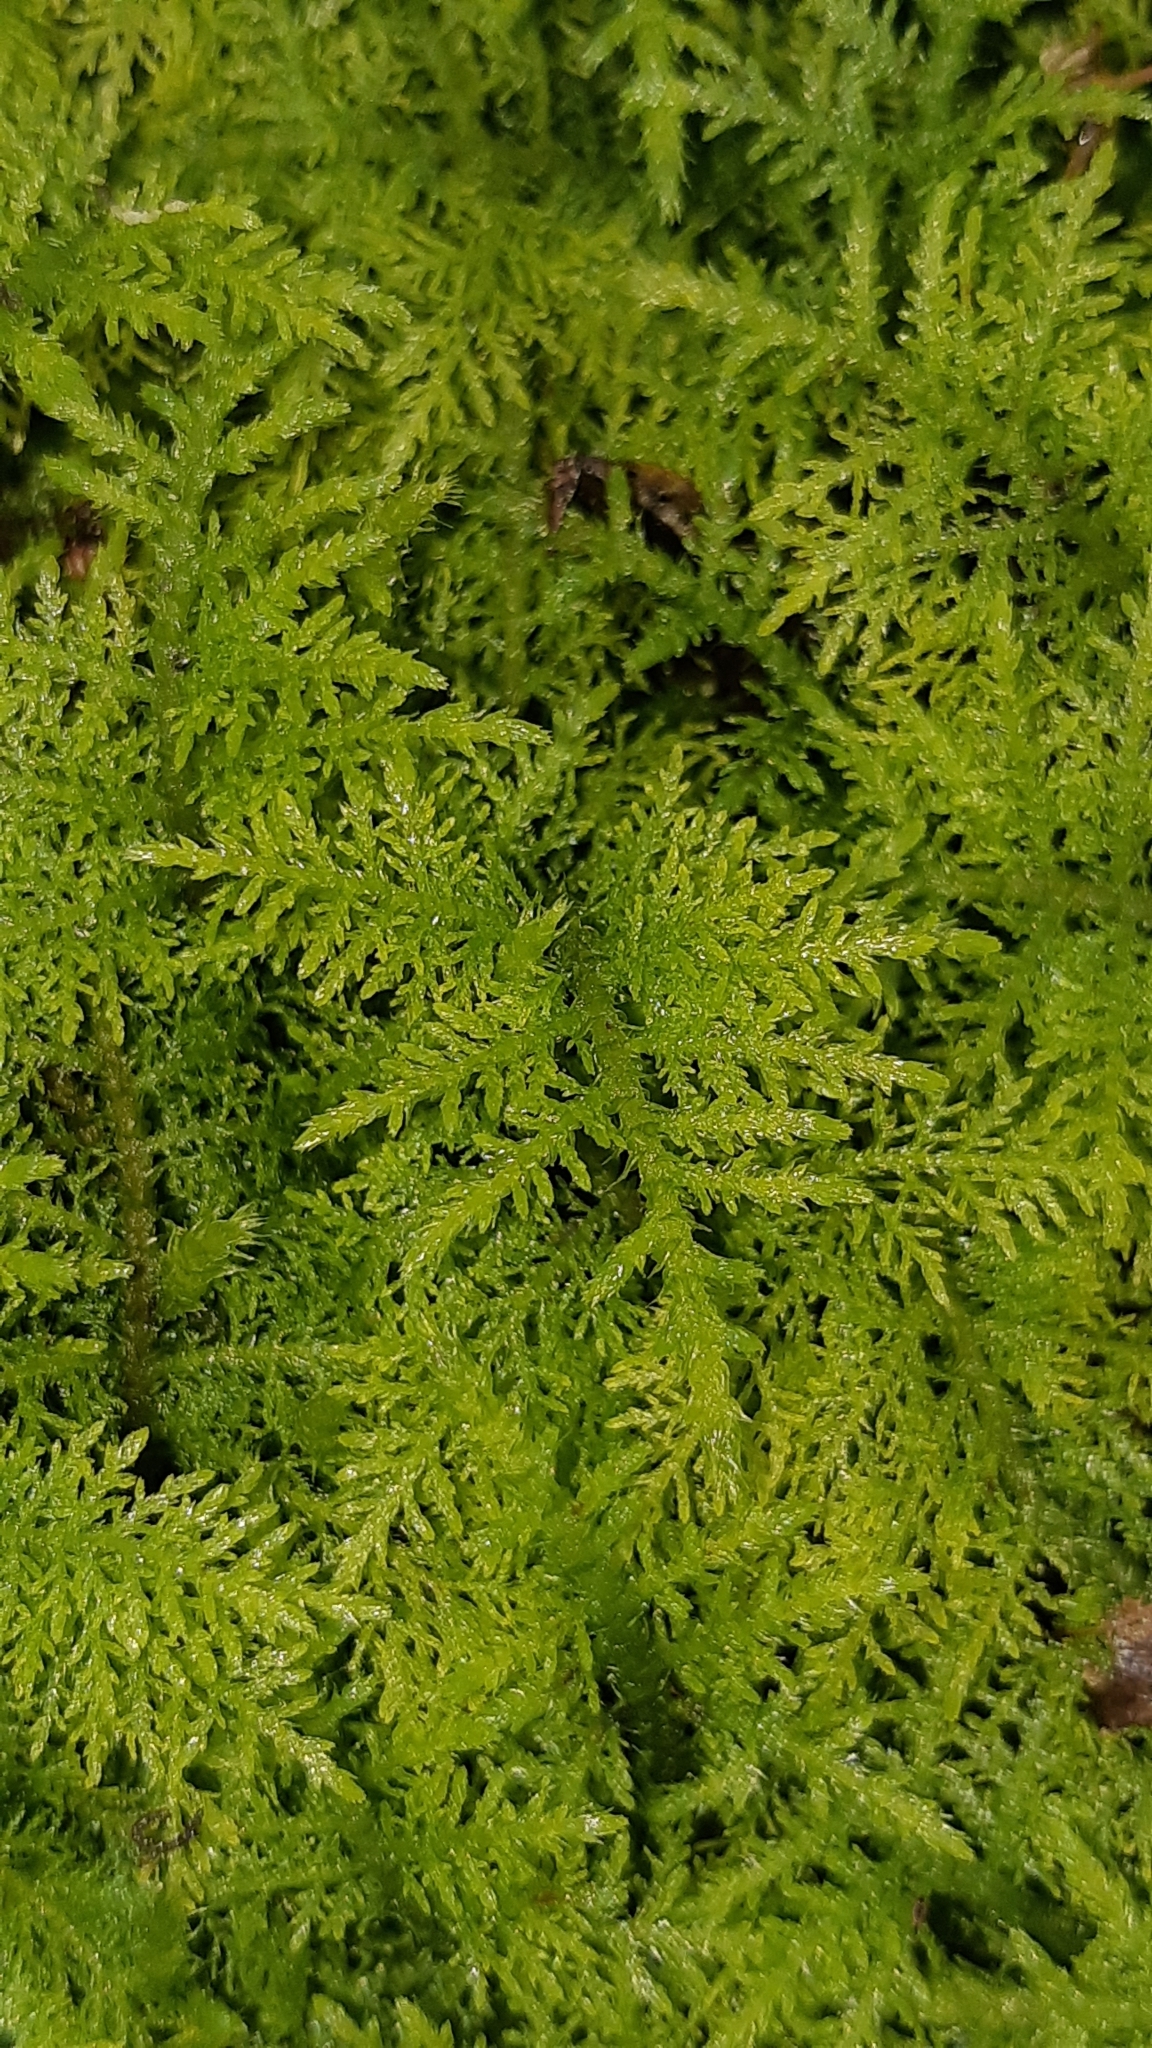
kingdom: Plantae
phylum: Bryophyta
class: Bryopsida
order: Hypnales
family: Thuidiaceae
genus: Thuidium
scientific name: Thuidium tamariscinum
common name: Common tamarisk-moss
